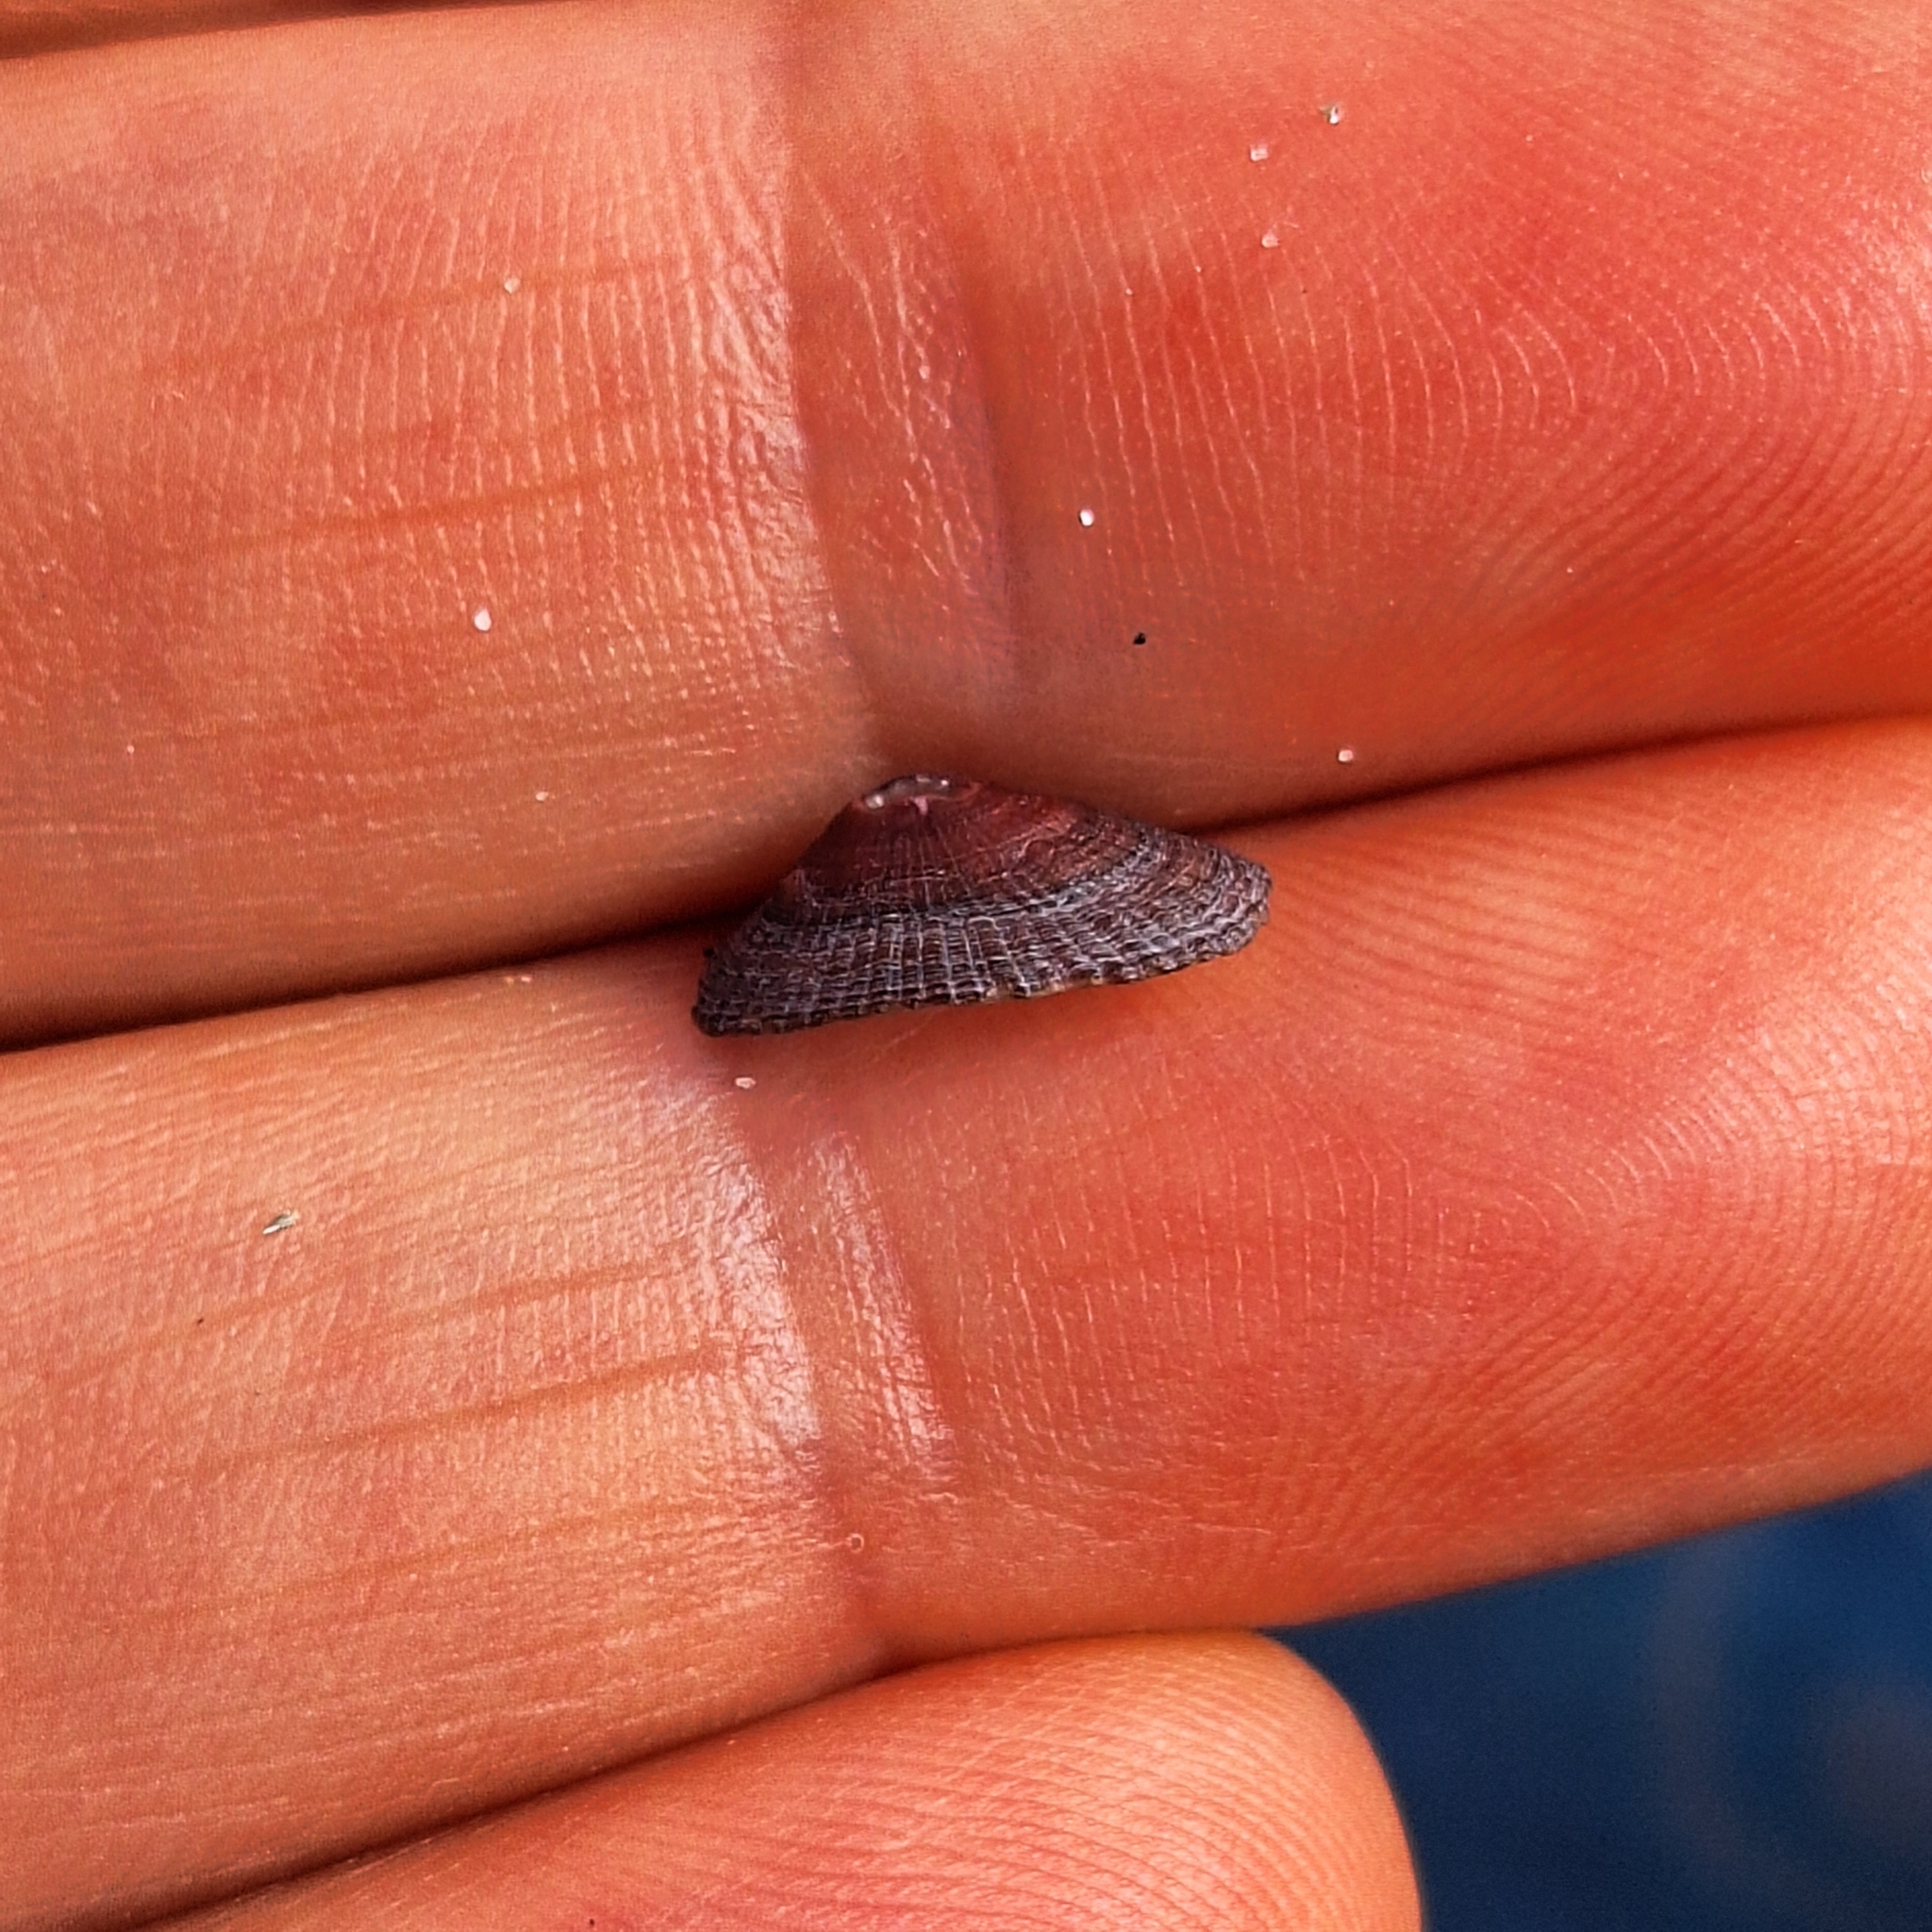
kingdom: Animalia
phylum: Mollusca
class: Gastropoda
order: Lepetellida
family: Fissurellidae
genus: Fissurella
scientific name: Fissurella nubecula
